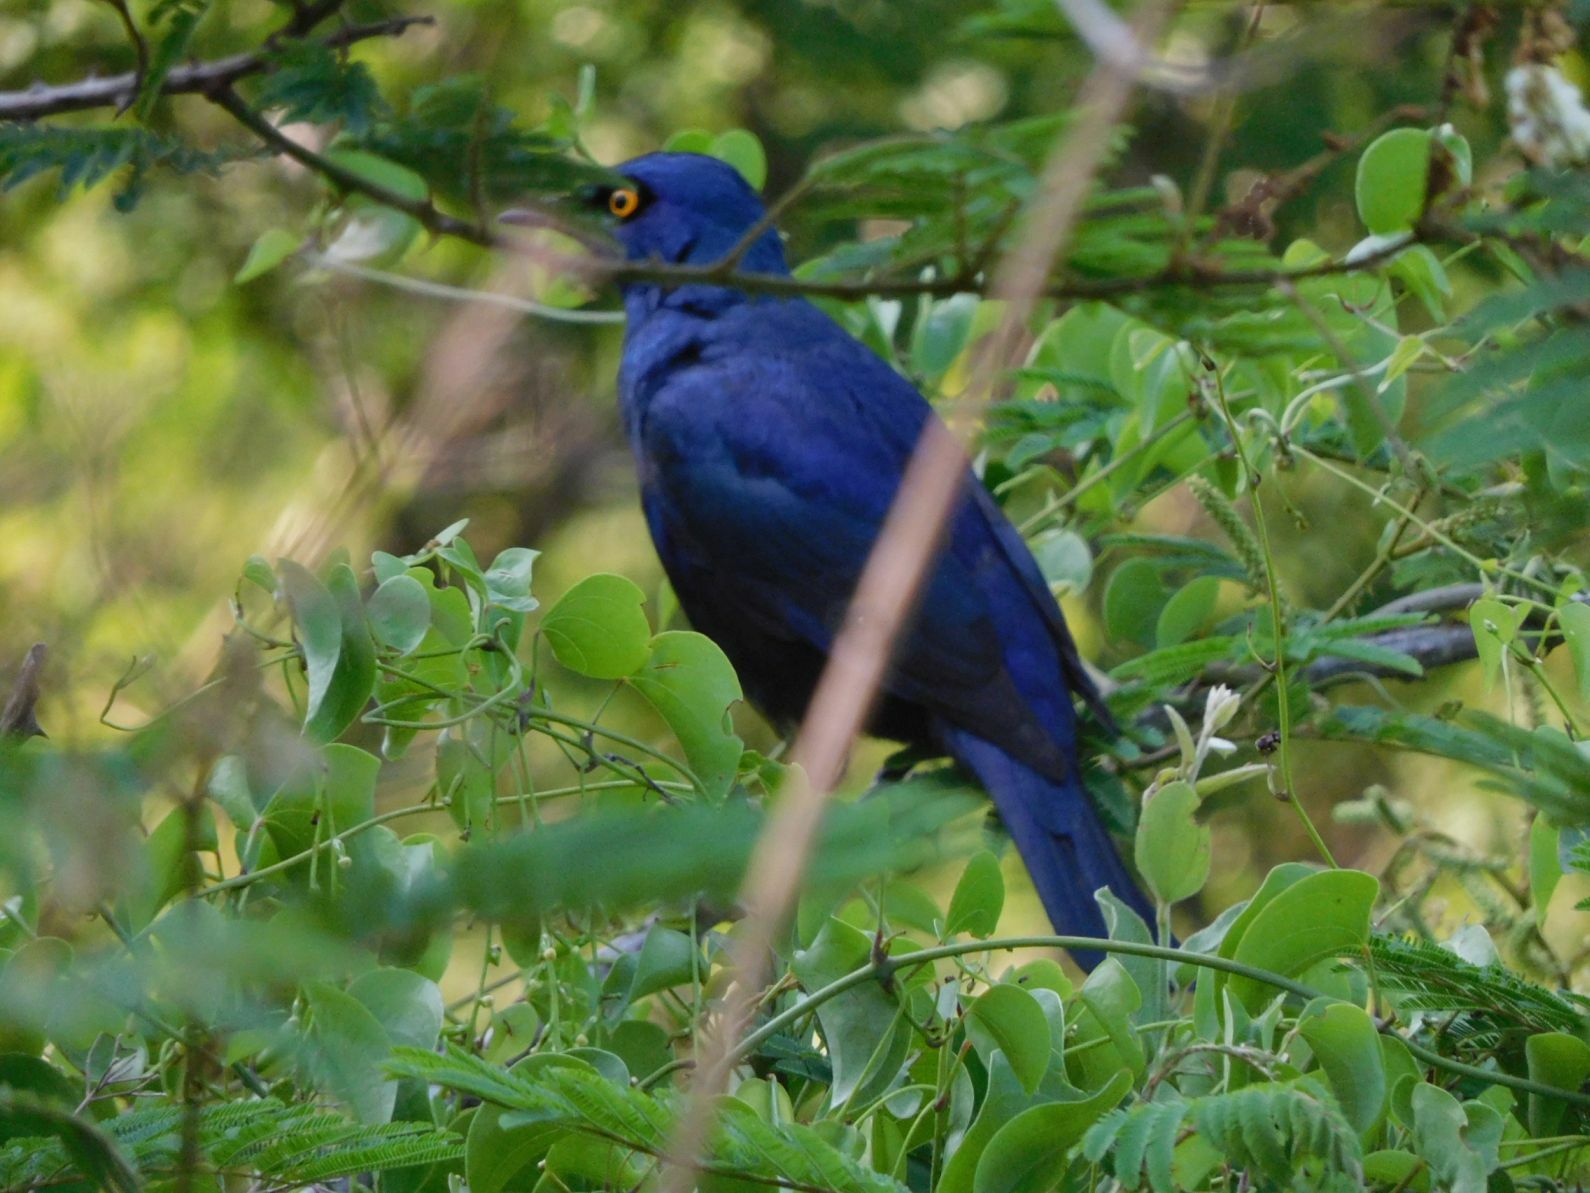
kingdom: Animalia
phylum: Chordata
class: Aves
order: Passeriformes
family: Sturnidae
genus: Notopholia
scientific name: Notopholia corrusca
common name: Black-bellied starling
